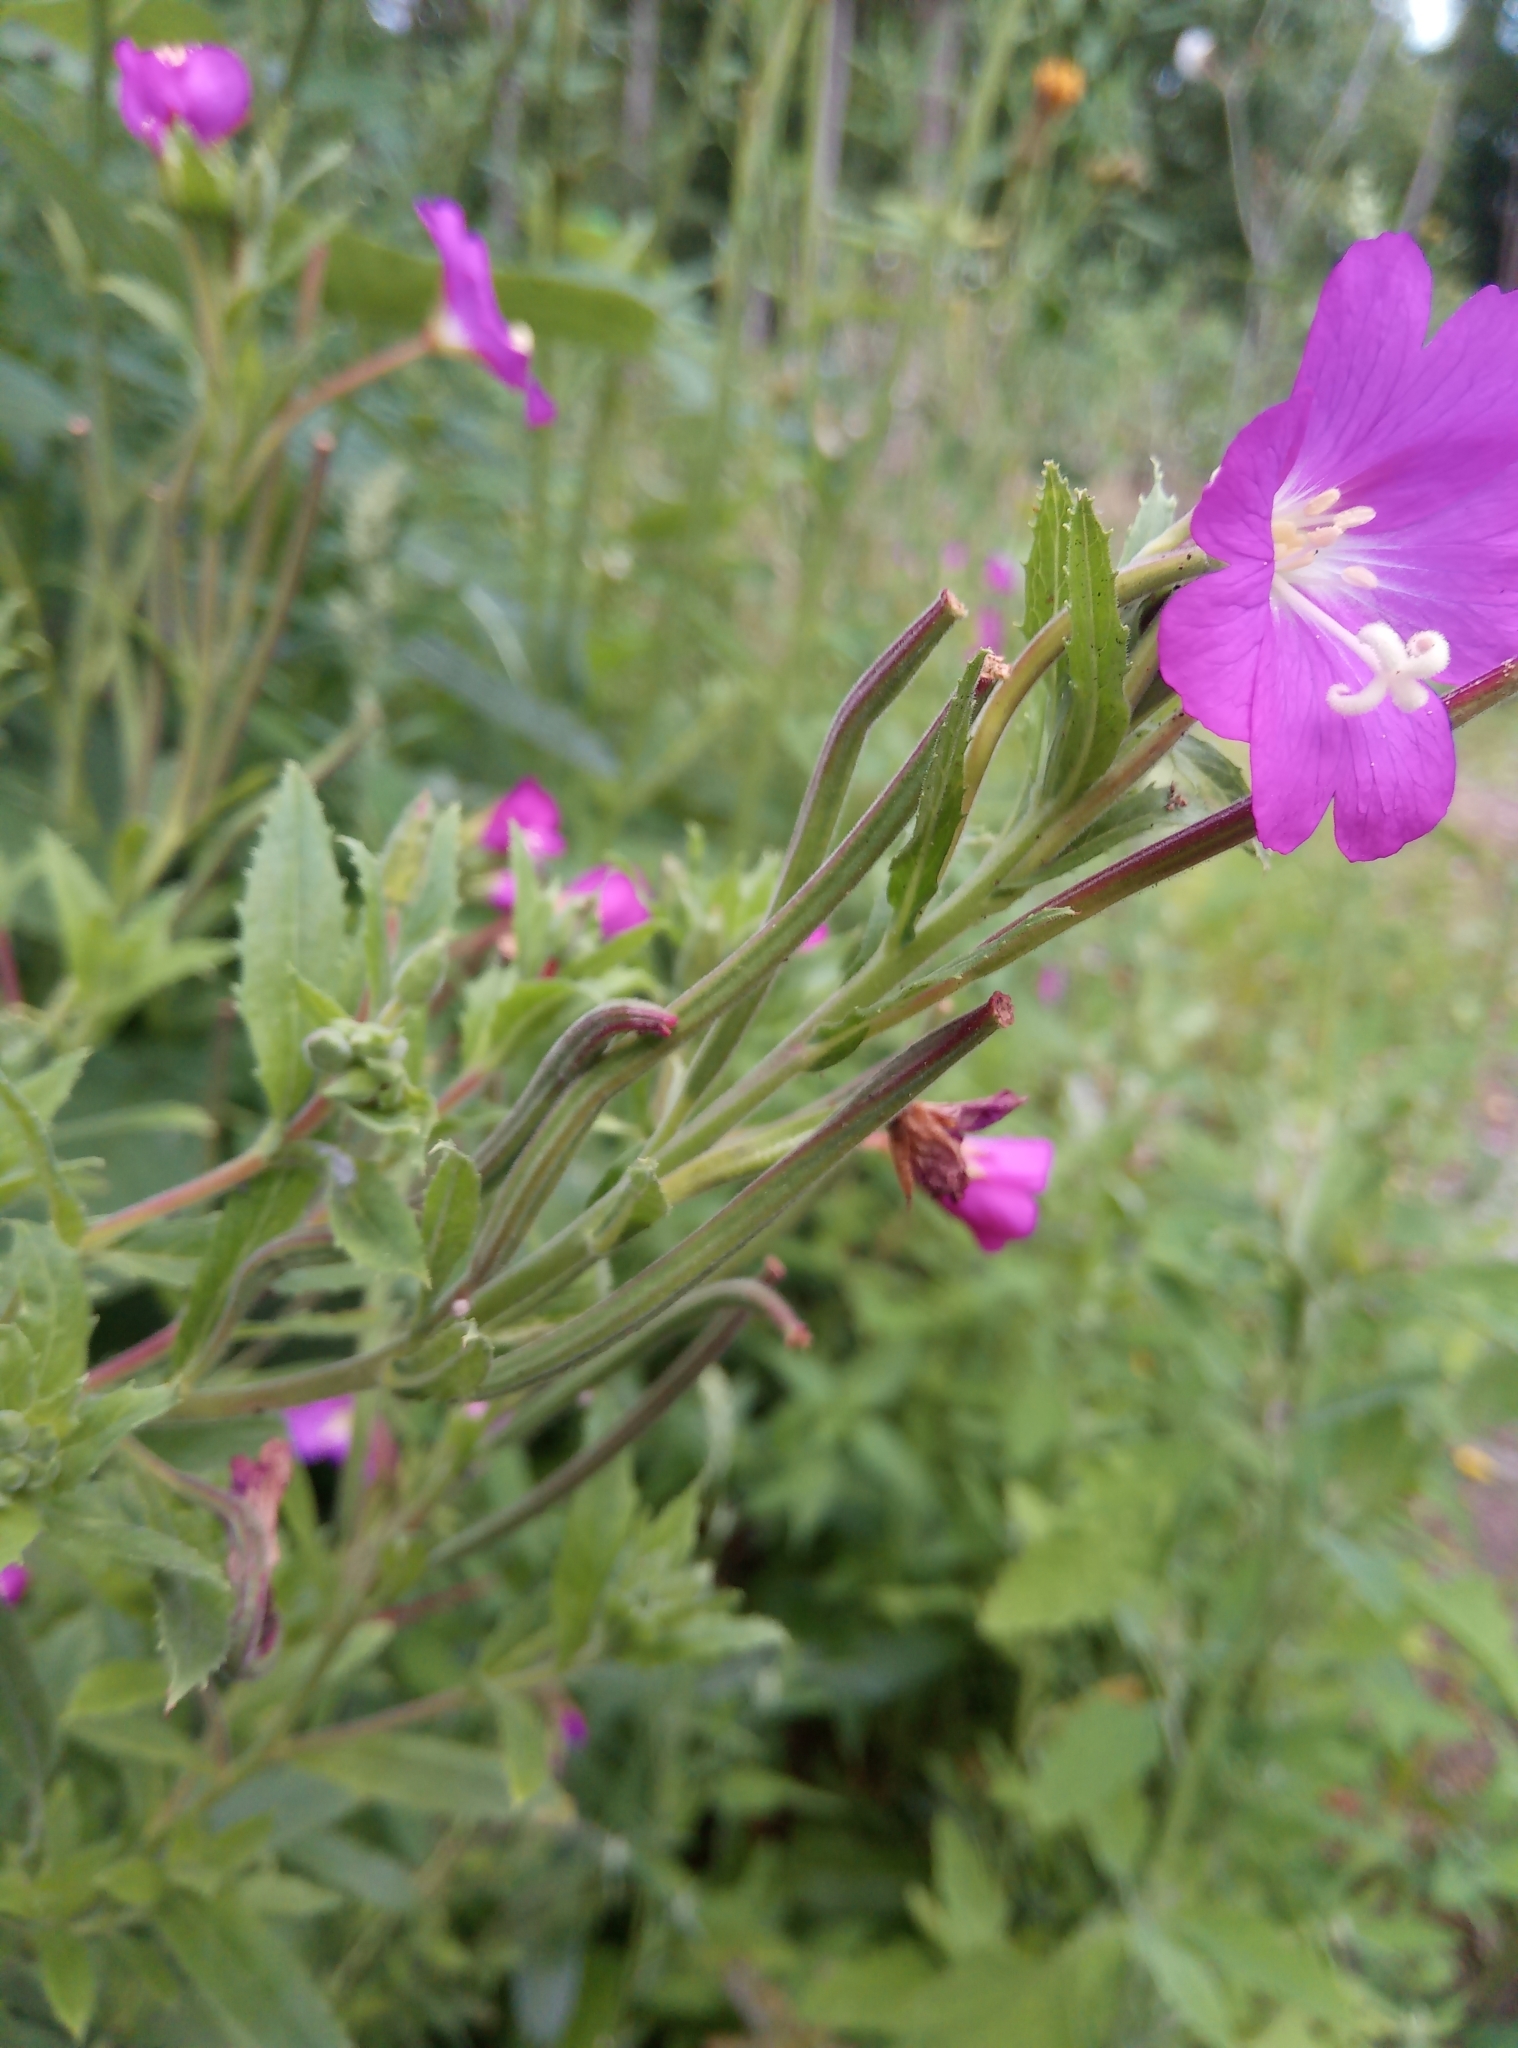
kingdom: Plantae
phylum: Tracheophyta
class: Magnoliopsida
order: Myrtales
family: Onagraceae
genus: Epilobium
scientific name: Epilobium hirsutum
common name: Great willowherb
